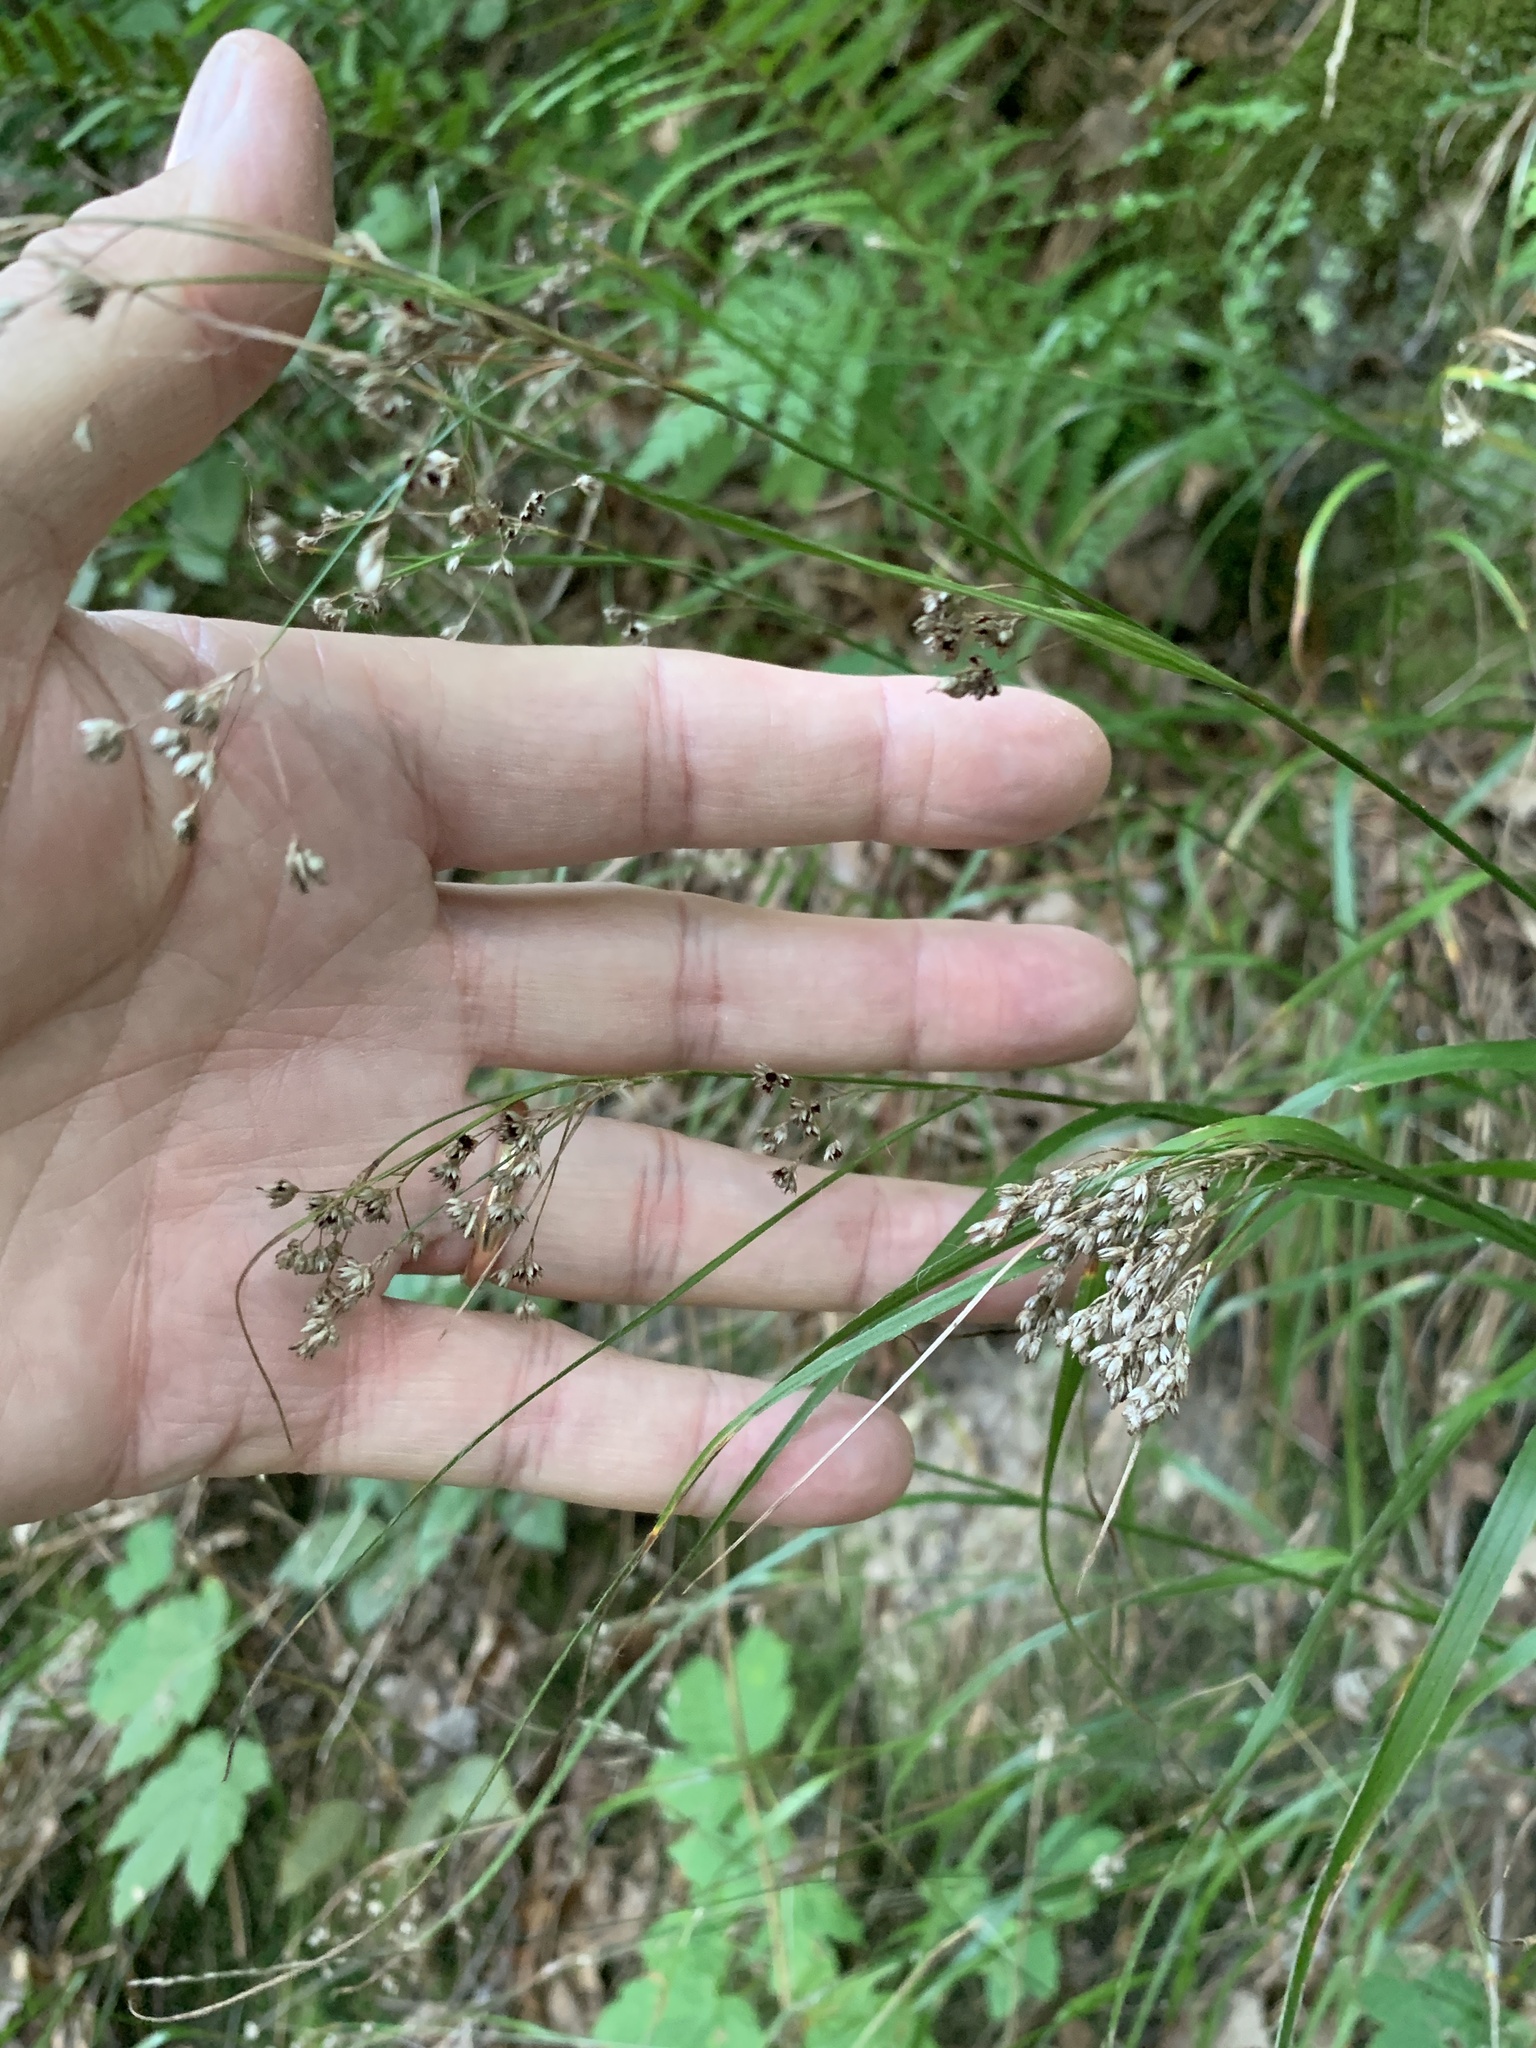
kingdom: Plantae
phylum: Tracheophyta
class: Liliopsida
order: Poales
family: Juncaceae
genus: Luzula
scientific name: Luzula luzuloides
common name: White wood-rush
